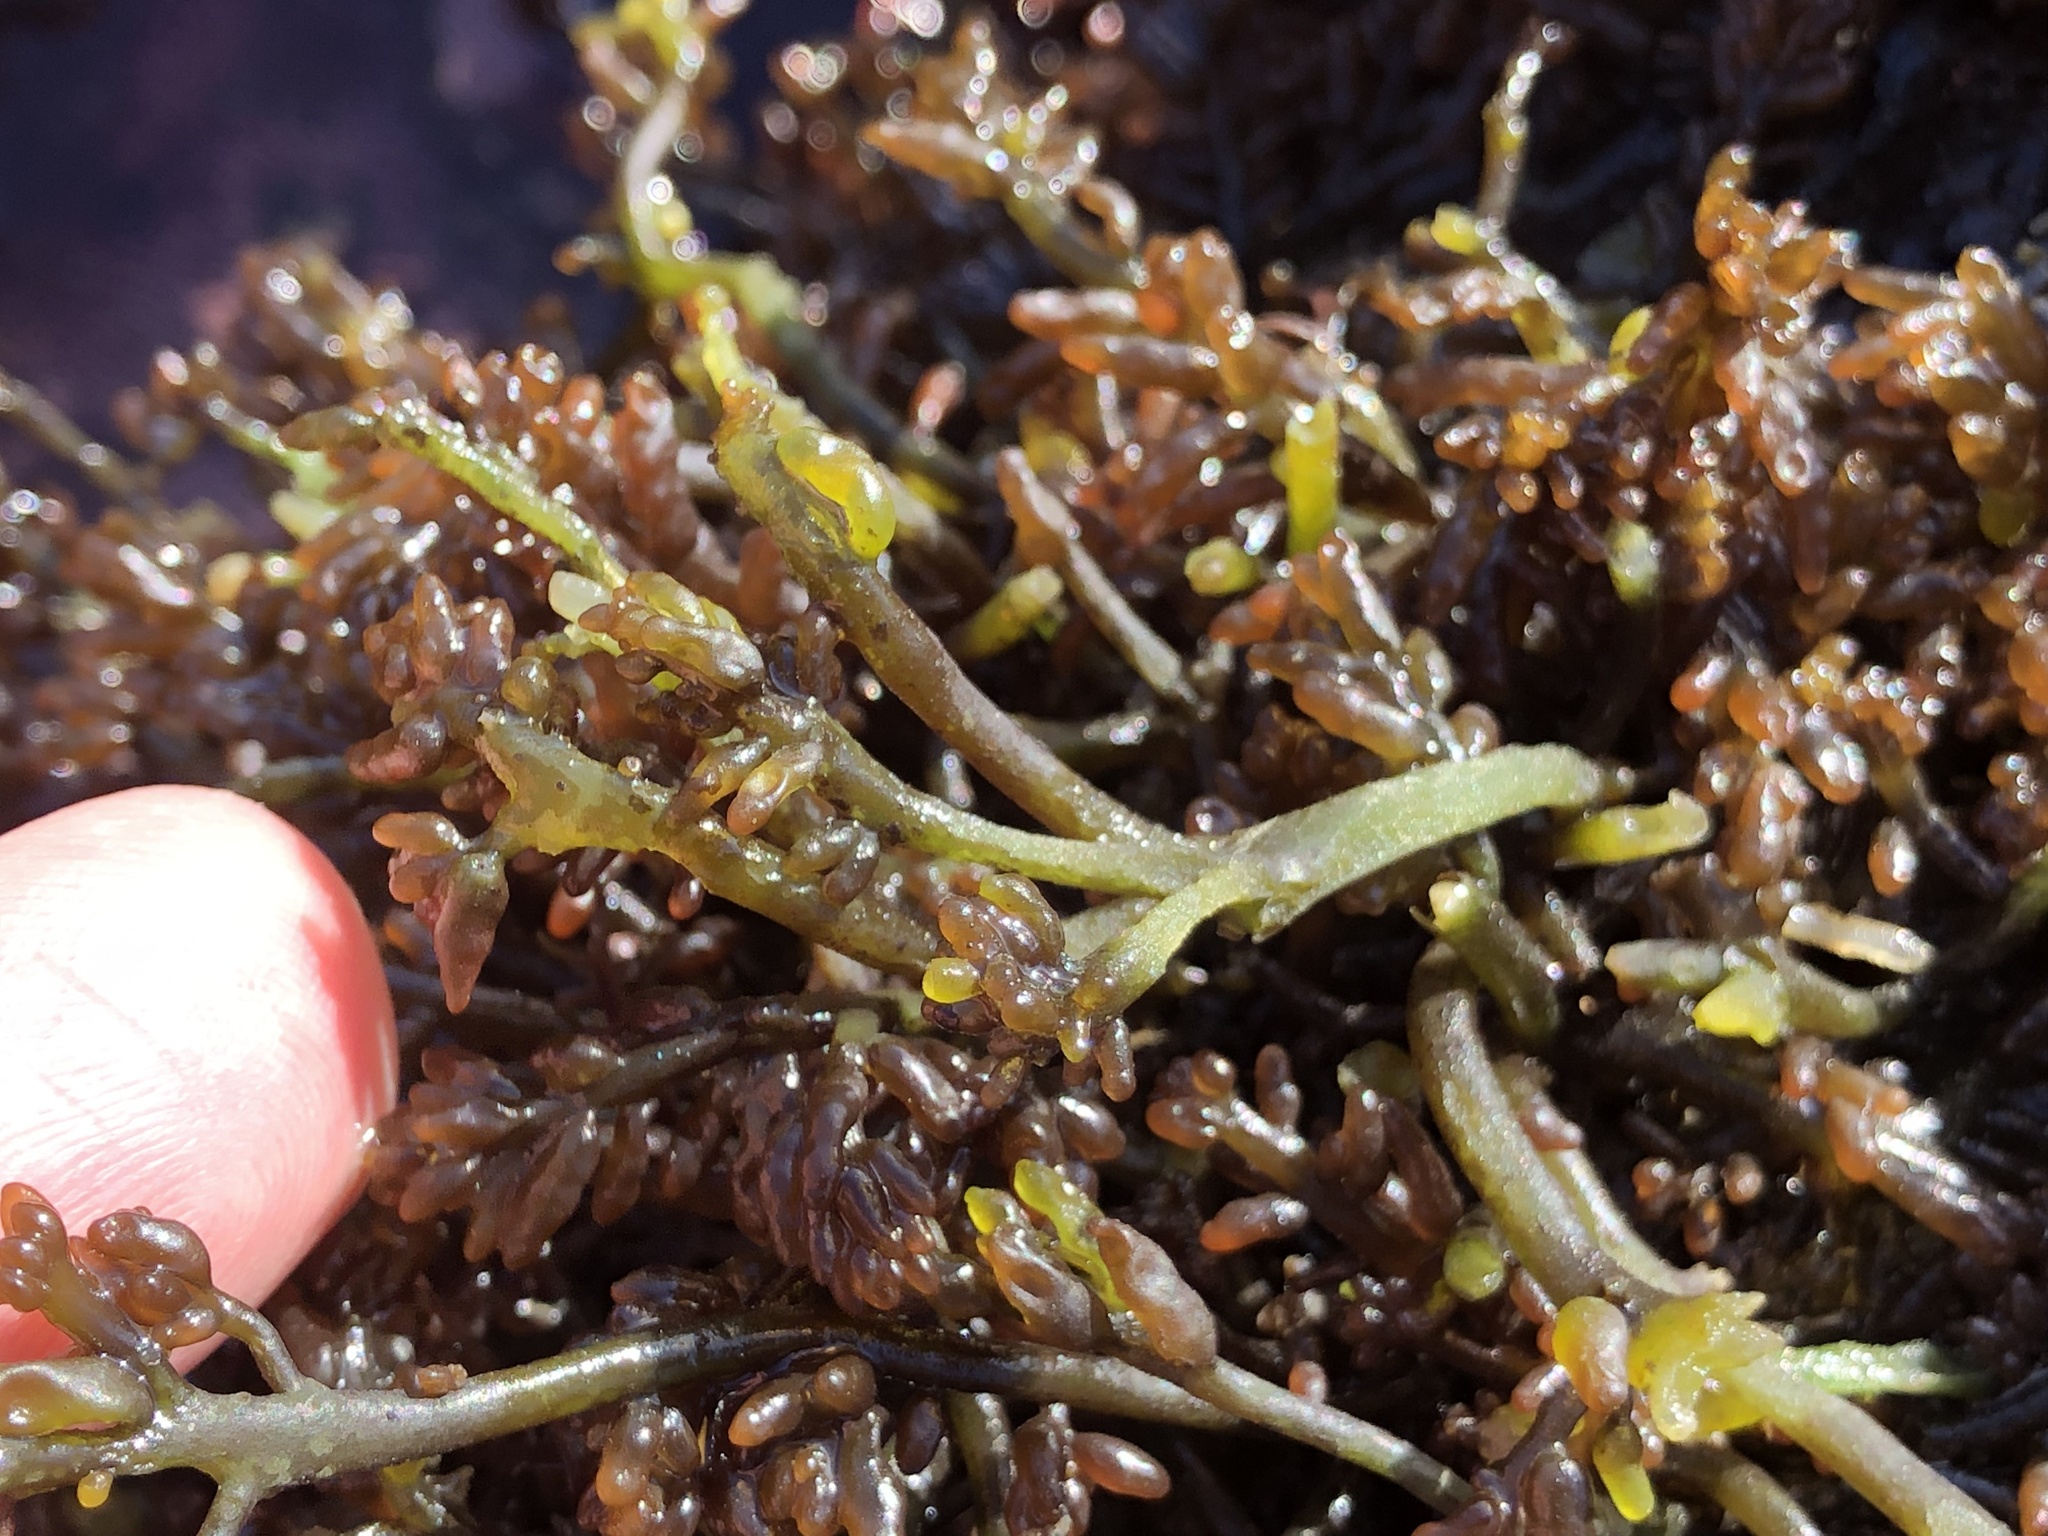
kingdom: Plantae
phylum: Rhodophyta
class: Florideophyceae
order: Rhodymeniales
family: Champiaceae
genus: Neogastroclonium
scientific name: Neogastroclonium subarticulatum
